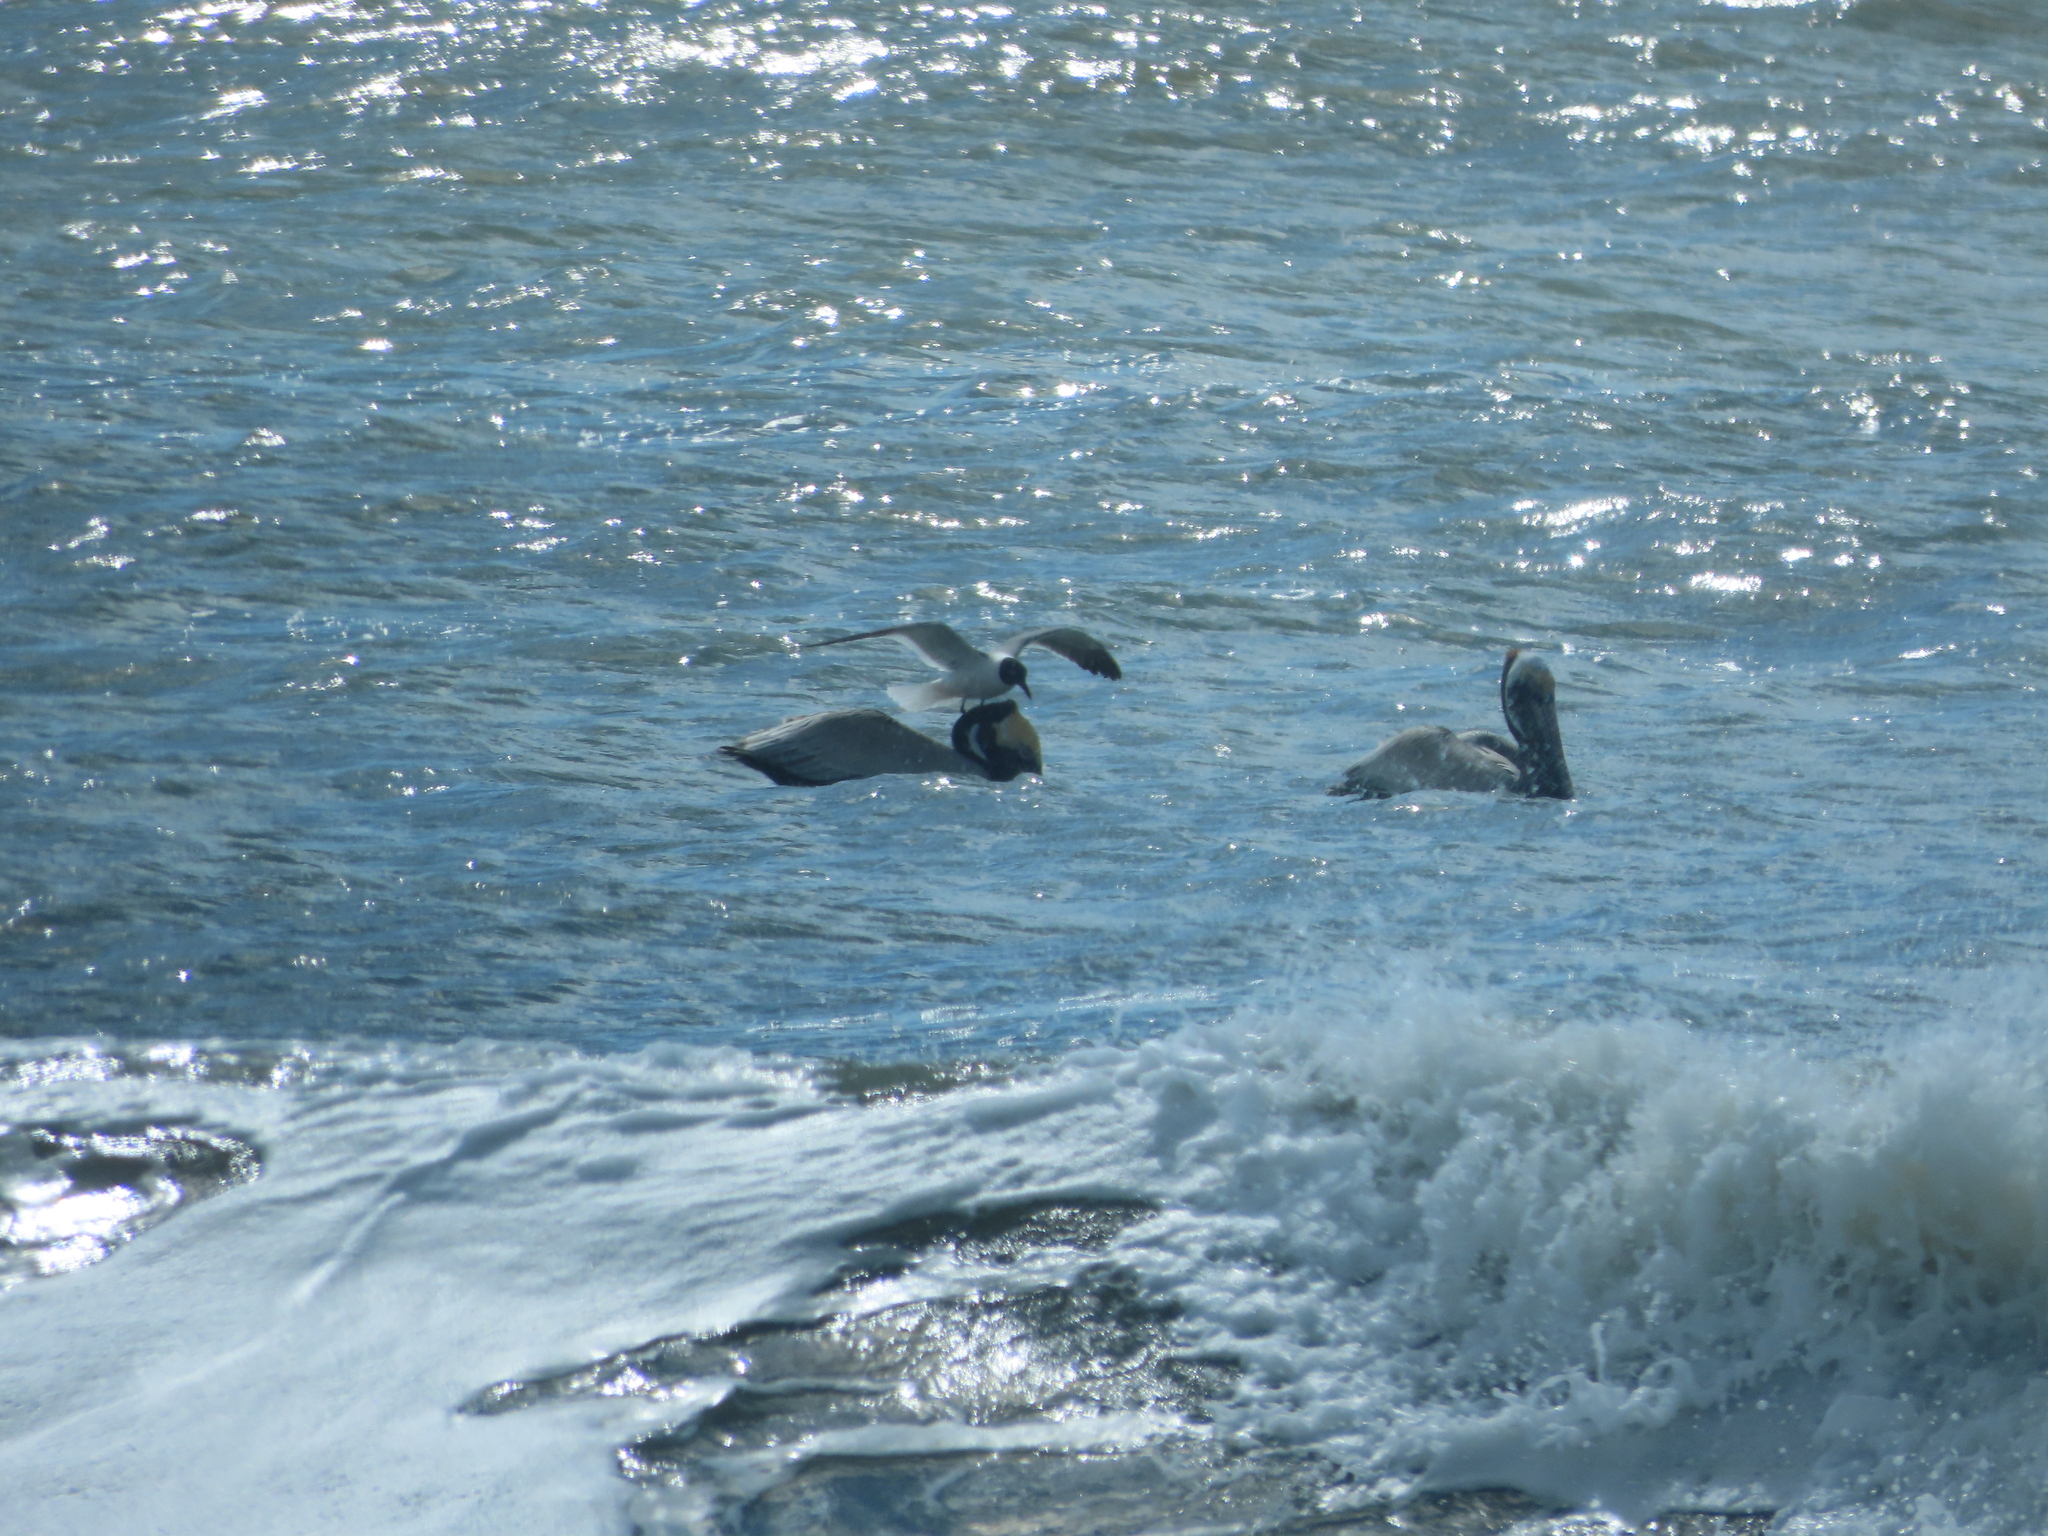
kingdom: Animalia
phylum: Chordata
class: Aves
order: Charadriiformes
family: Laridae
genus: Leucophaeus
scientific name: Leucophaeus atricilla
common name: Laughing gull
